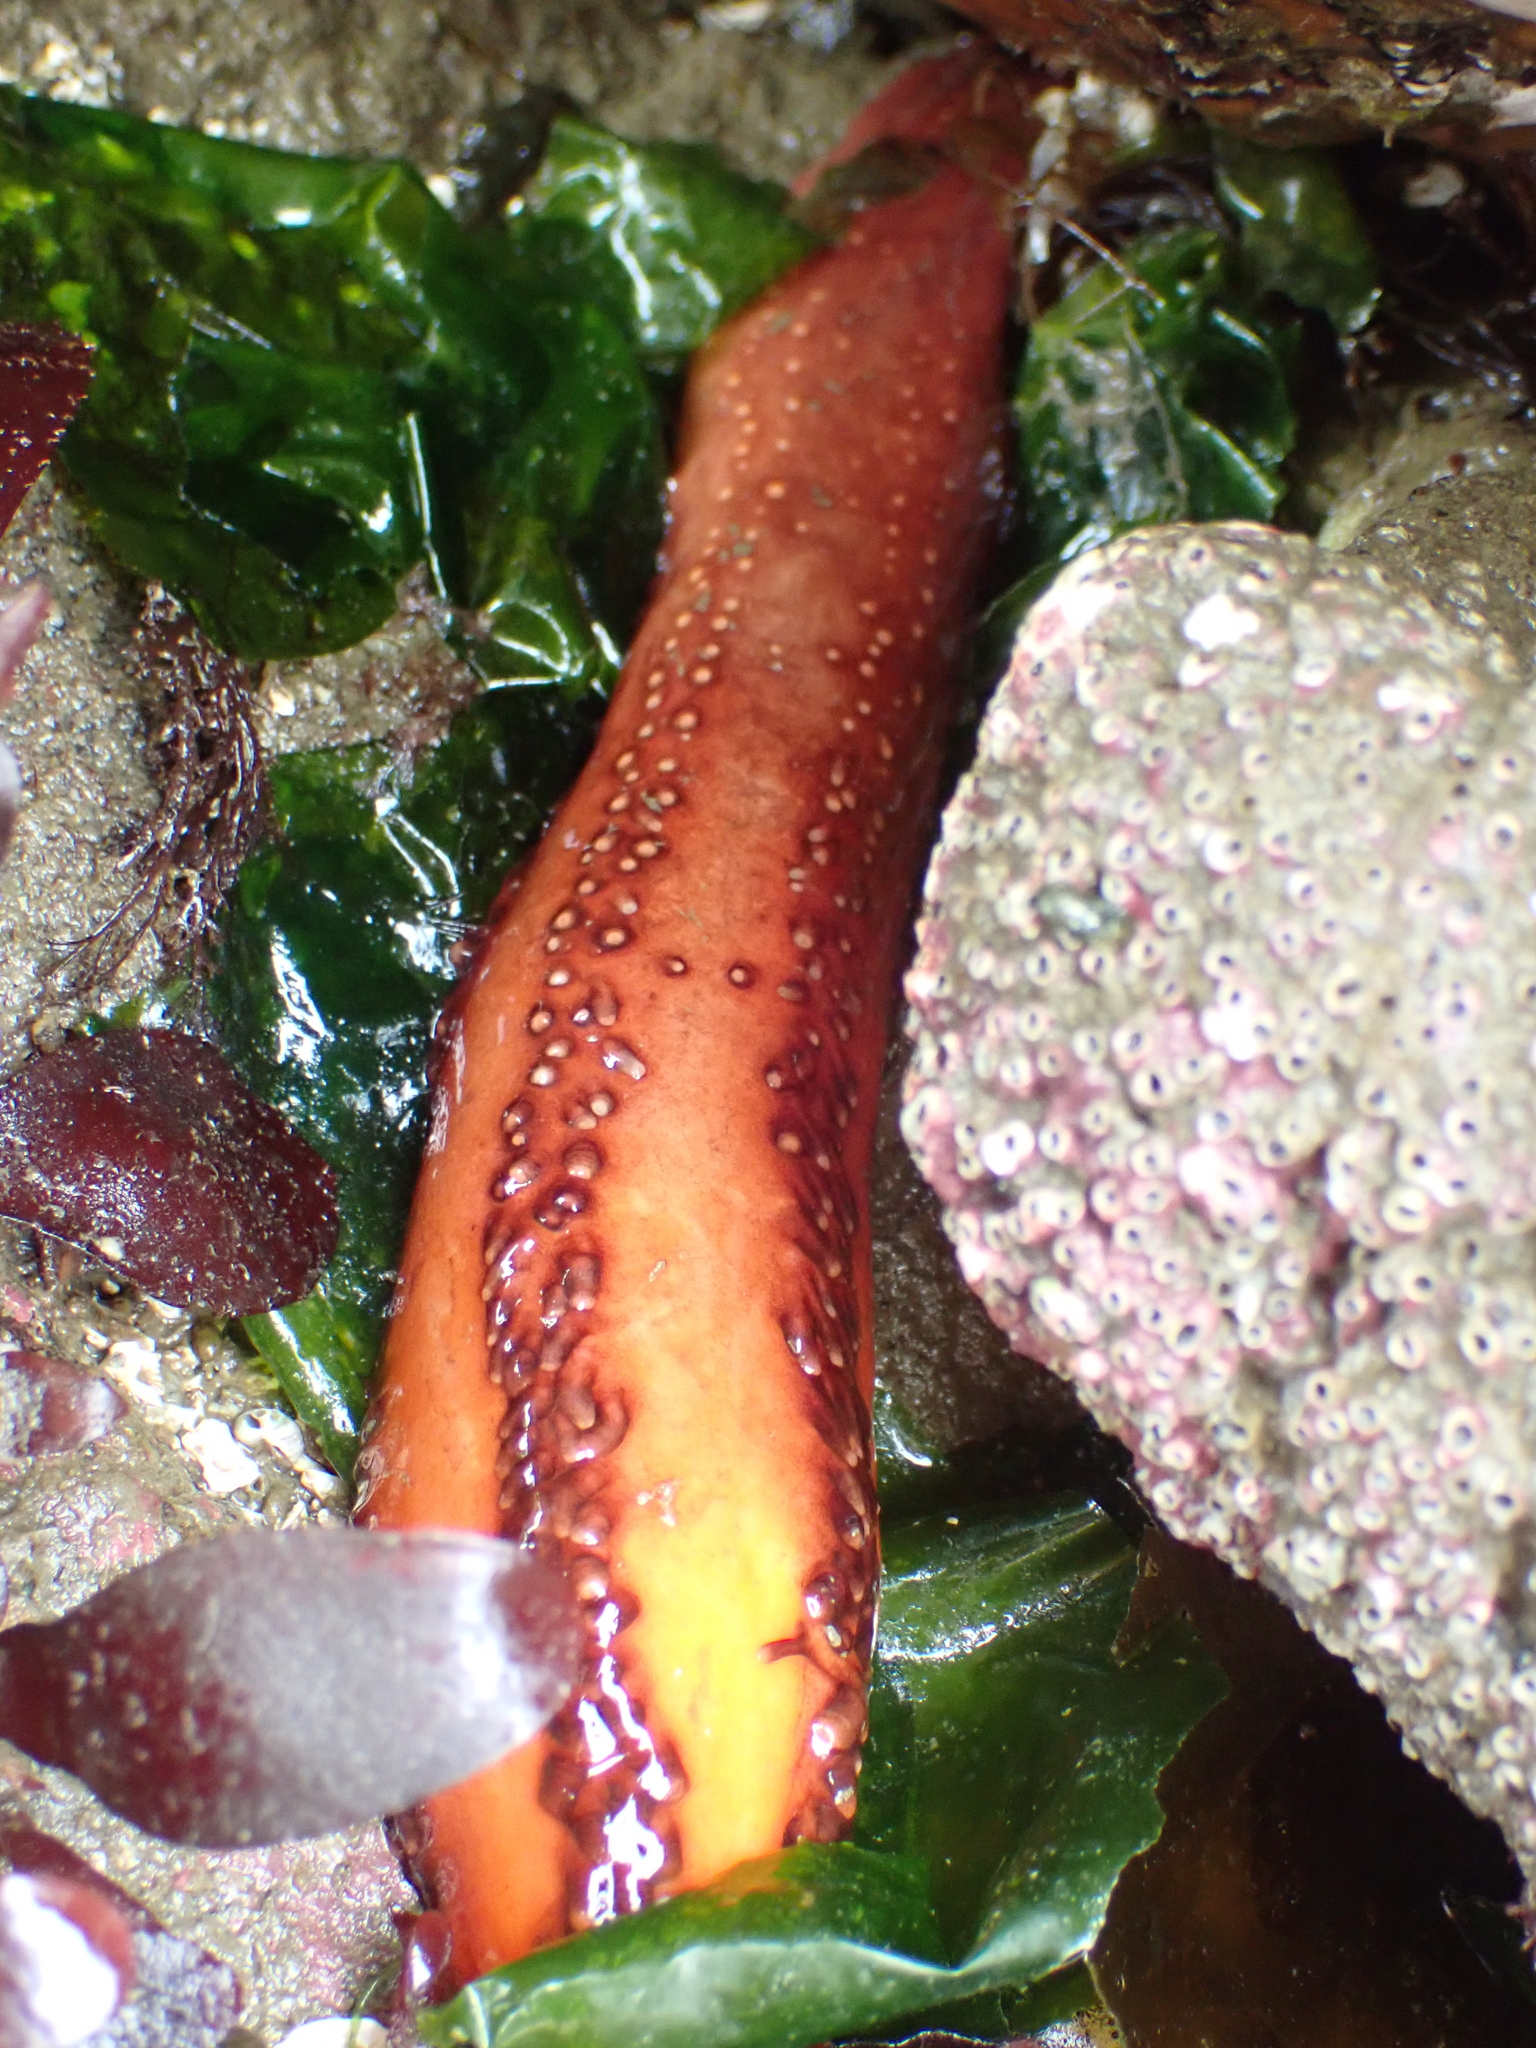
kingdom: Animalia
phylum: Echinodermata
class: Holothuroidea
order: Dendrochirotida
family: Cucumariidae
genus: Cucumaria
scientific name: Cucumaria miniata
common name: Orange sea cucumber
